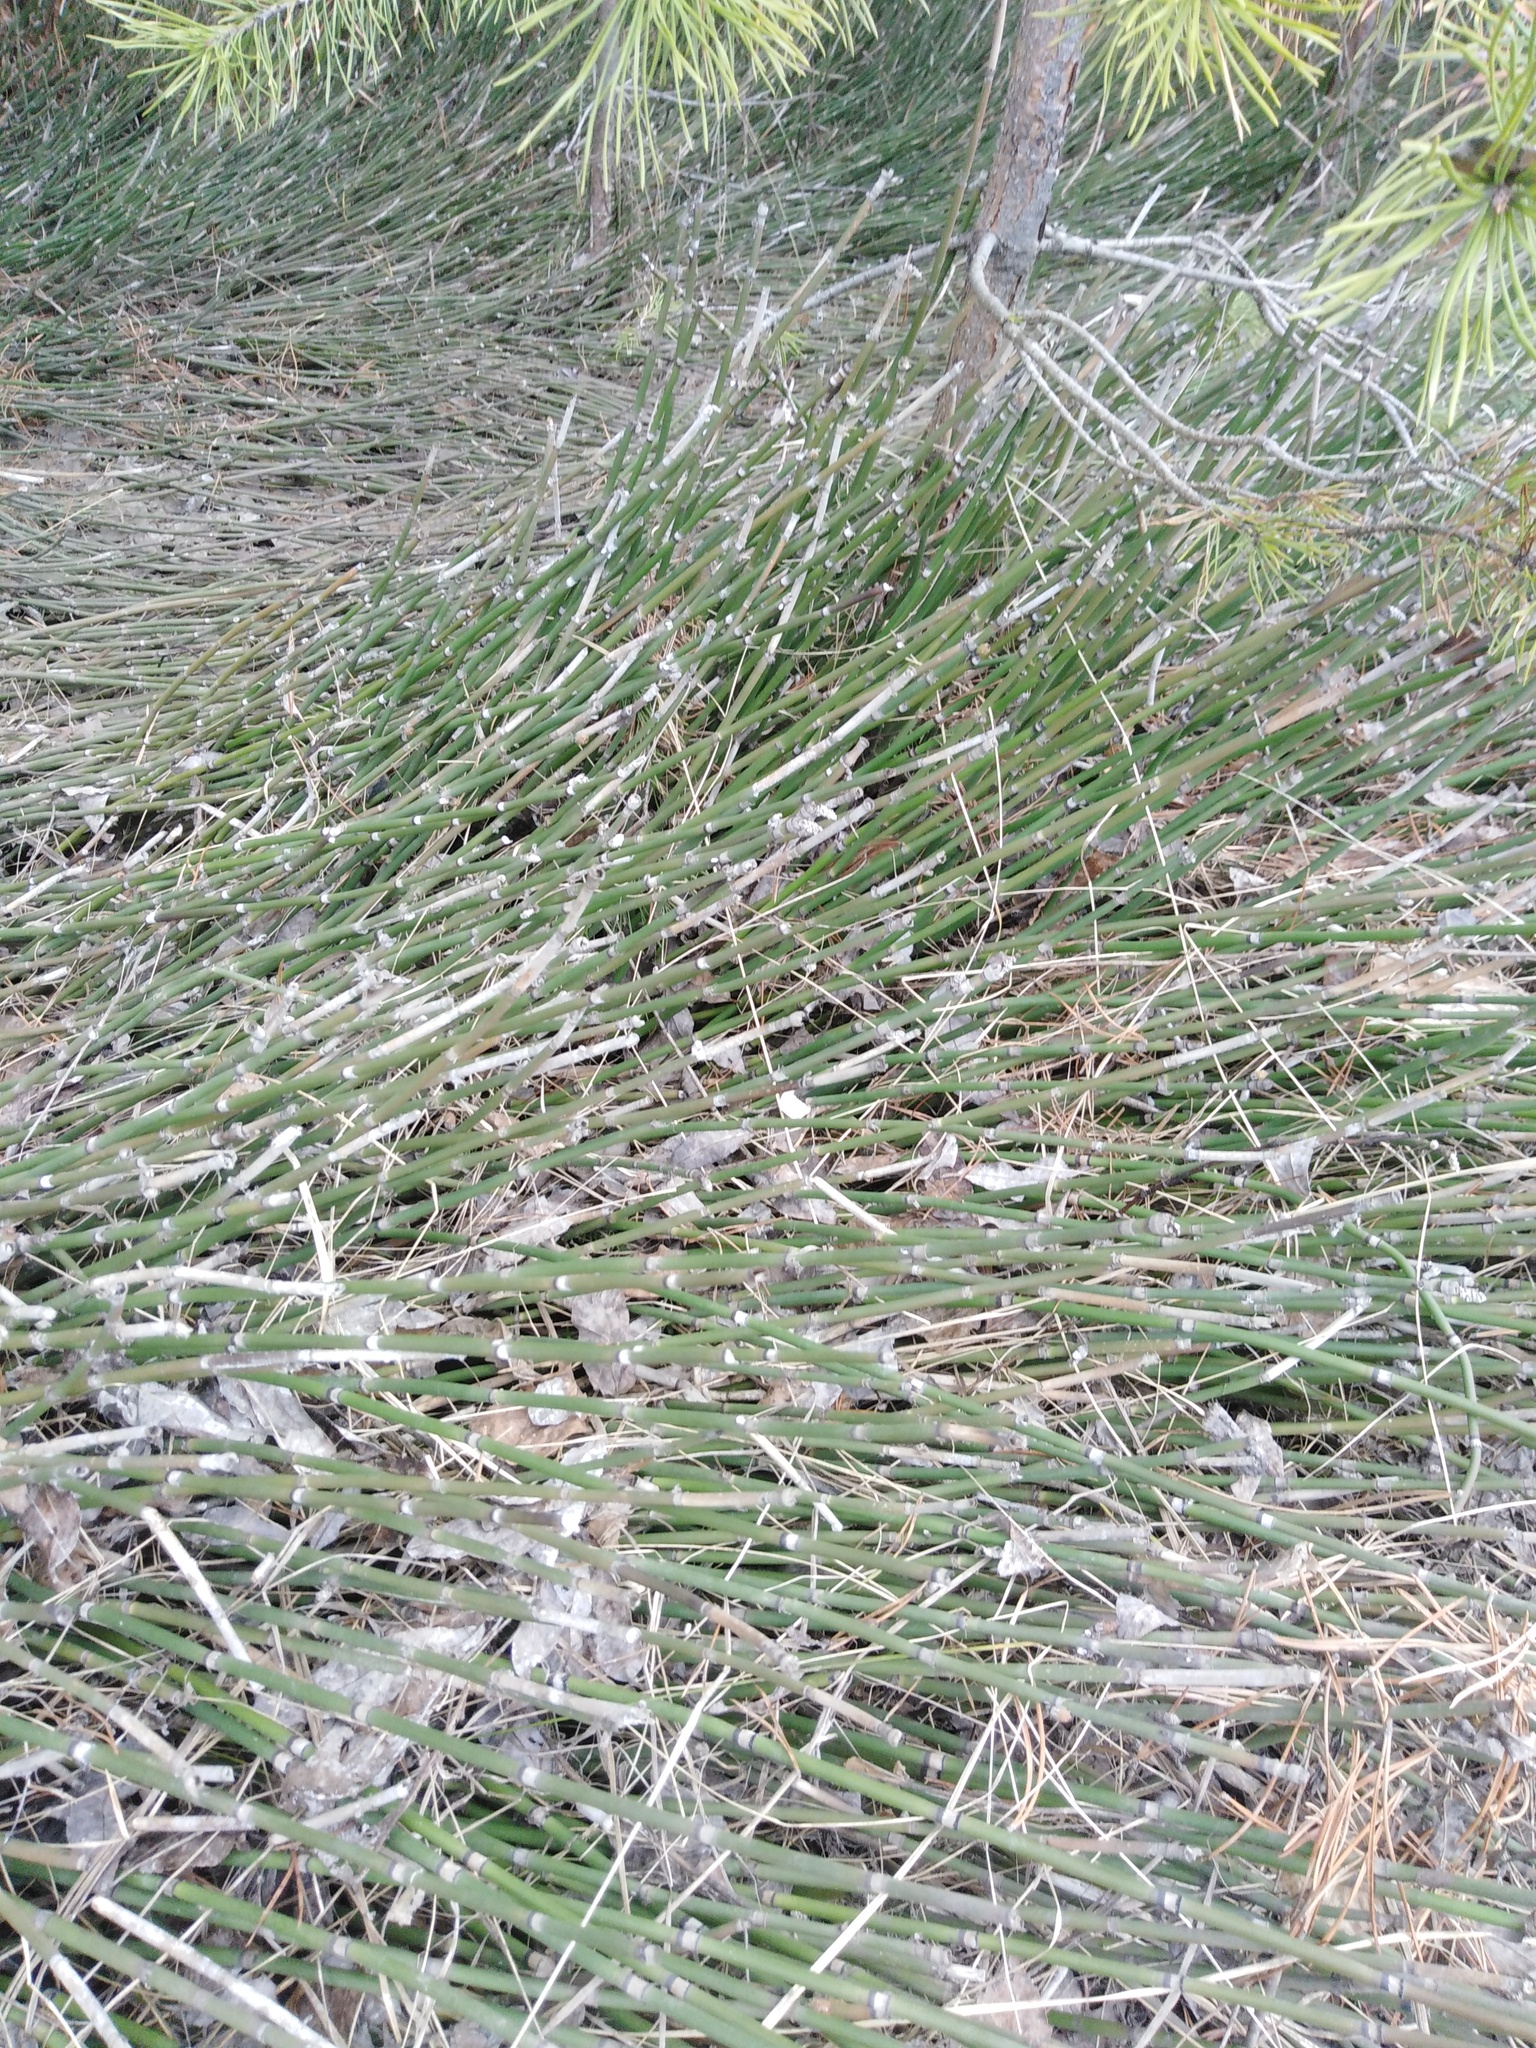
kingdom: Plantae
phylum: Tracheophyta
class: Polypodiopsida
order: Equisetales
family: Equisetaceae
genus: Equisetum
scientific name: Equisetum hyemale
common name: Rough horsetail
